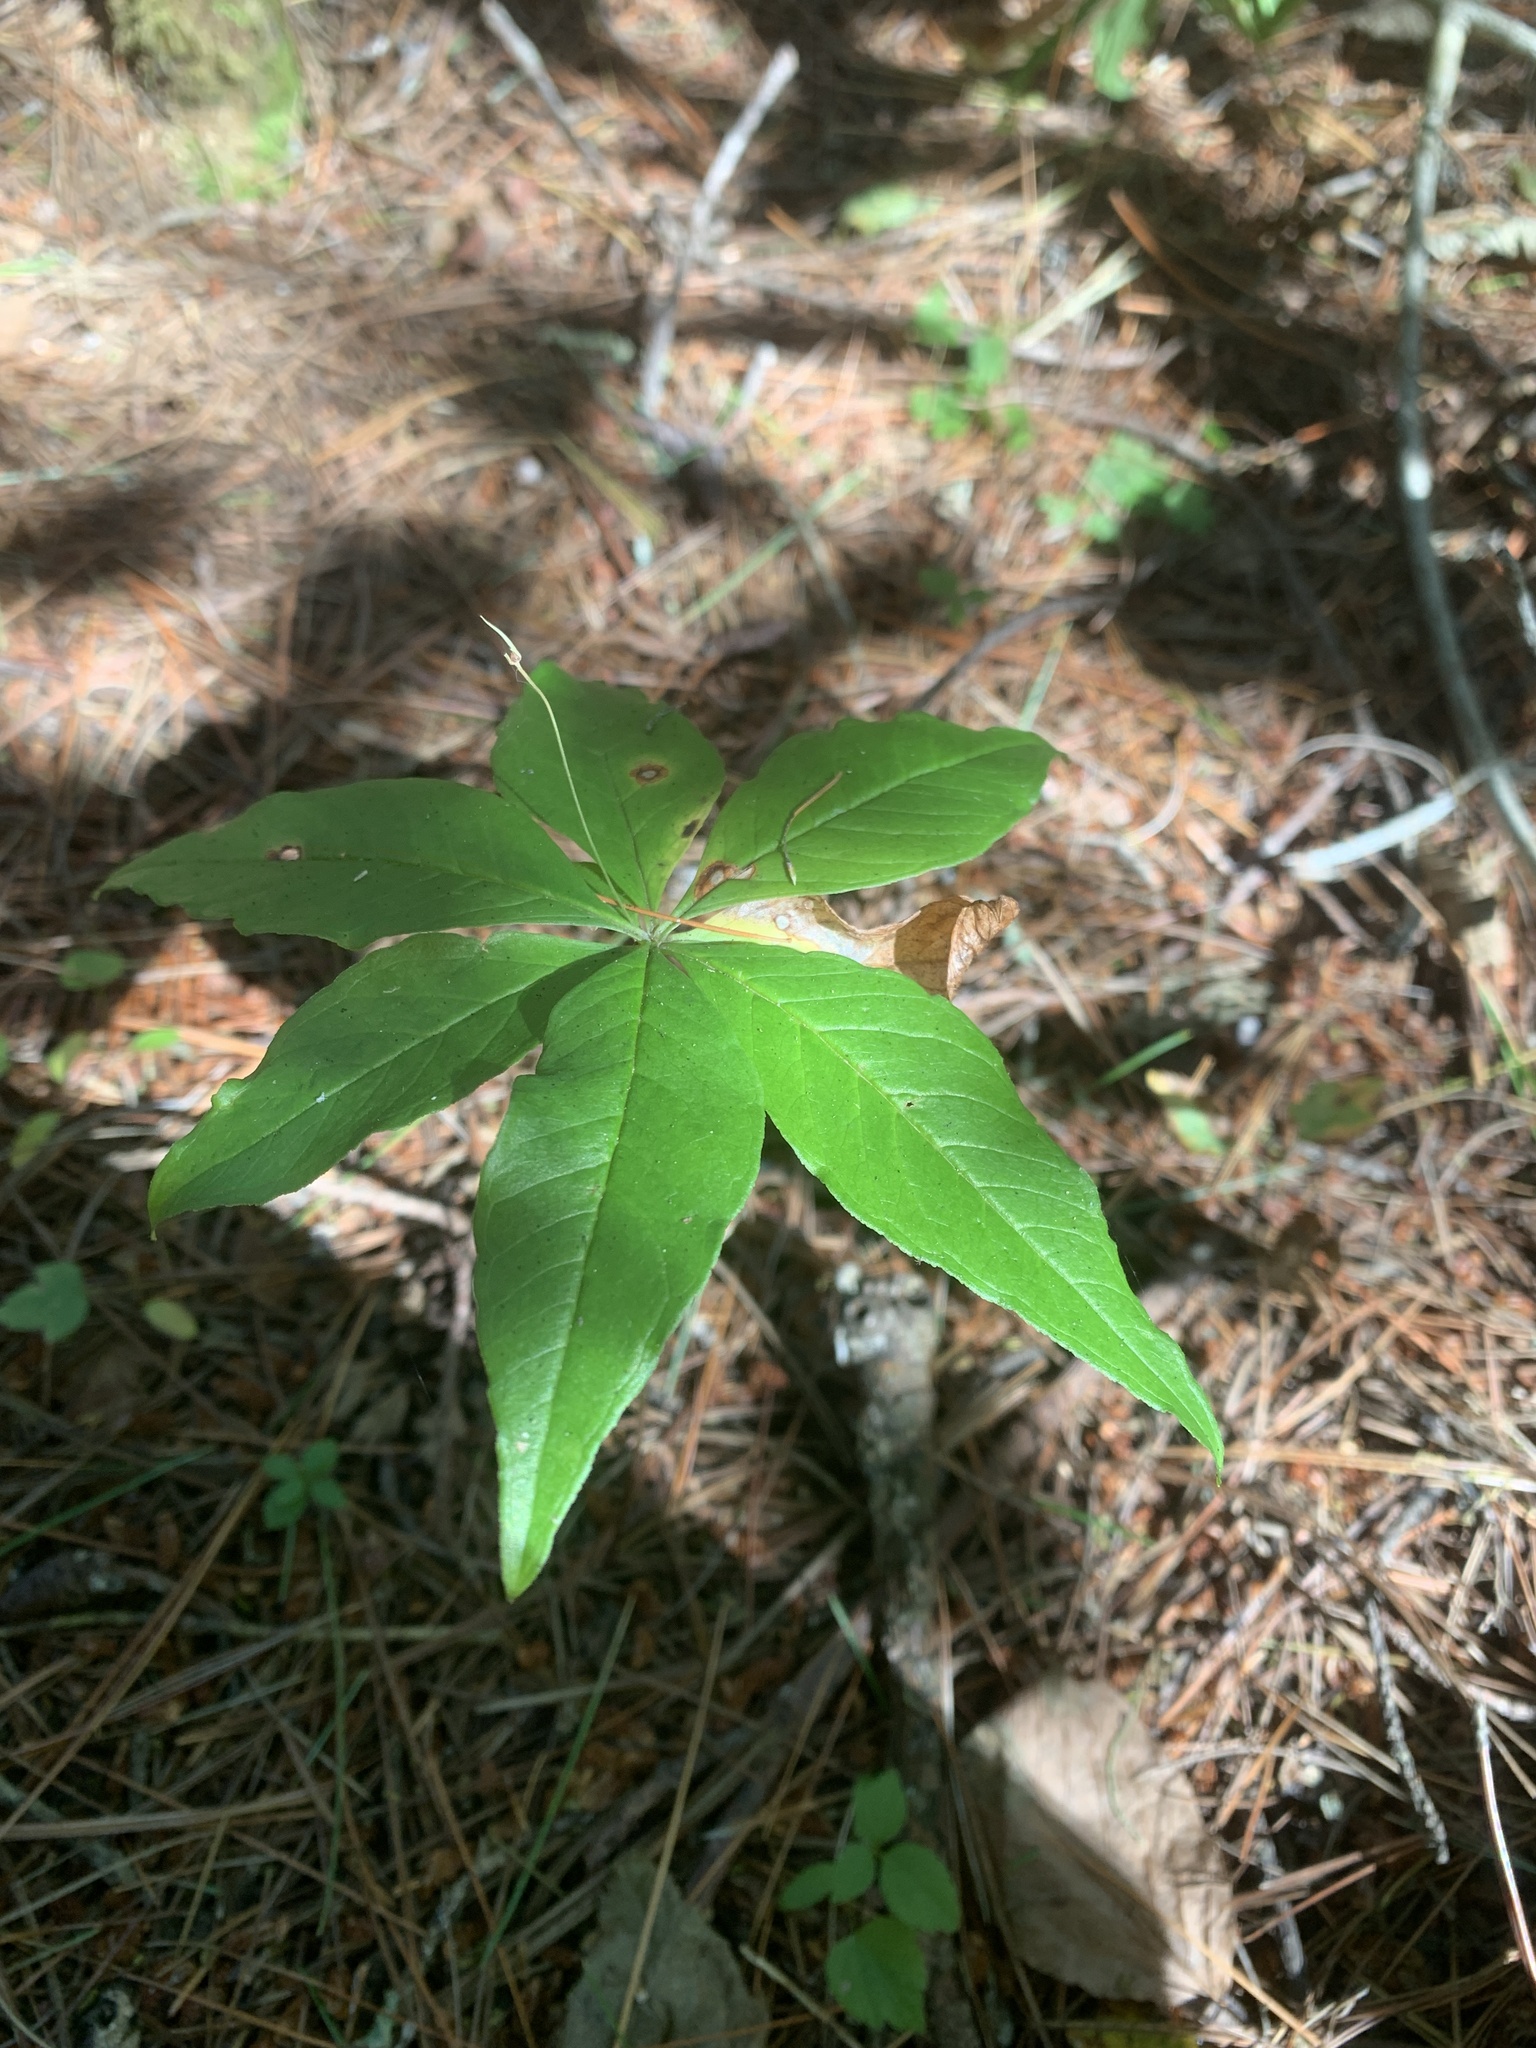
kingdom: Plantae
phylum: Tracheophyta
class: Magnoliopsida
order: Ericales
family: Primulaceae
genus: Lysimachia
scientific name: Lysimachia borealis
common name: American starflower
